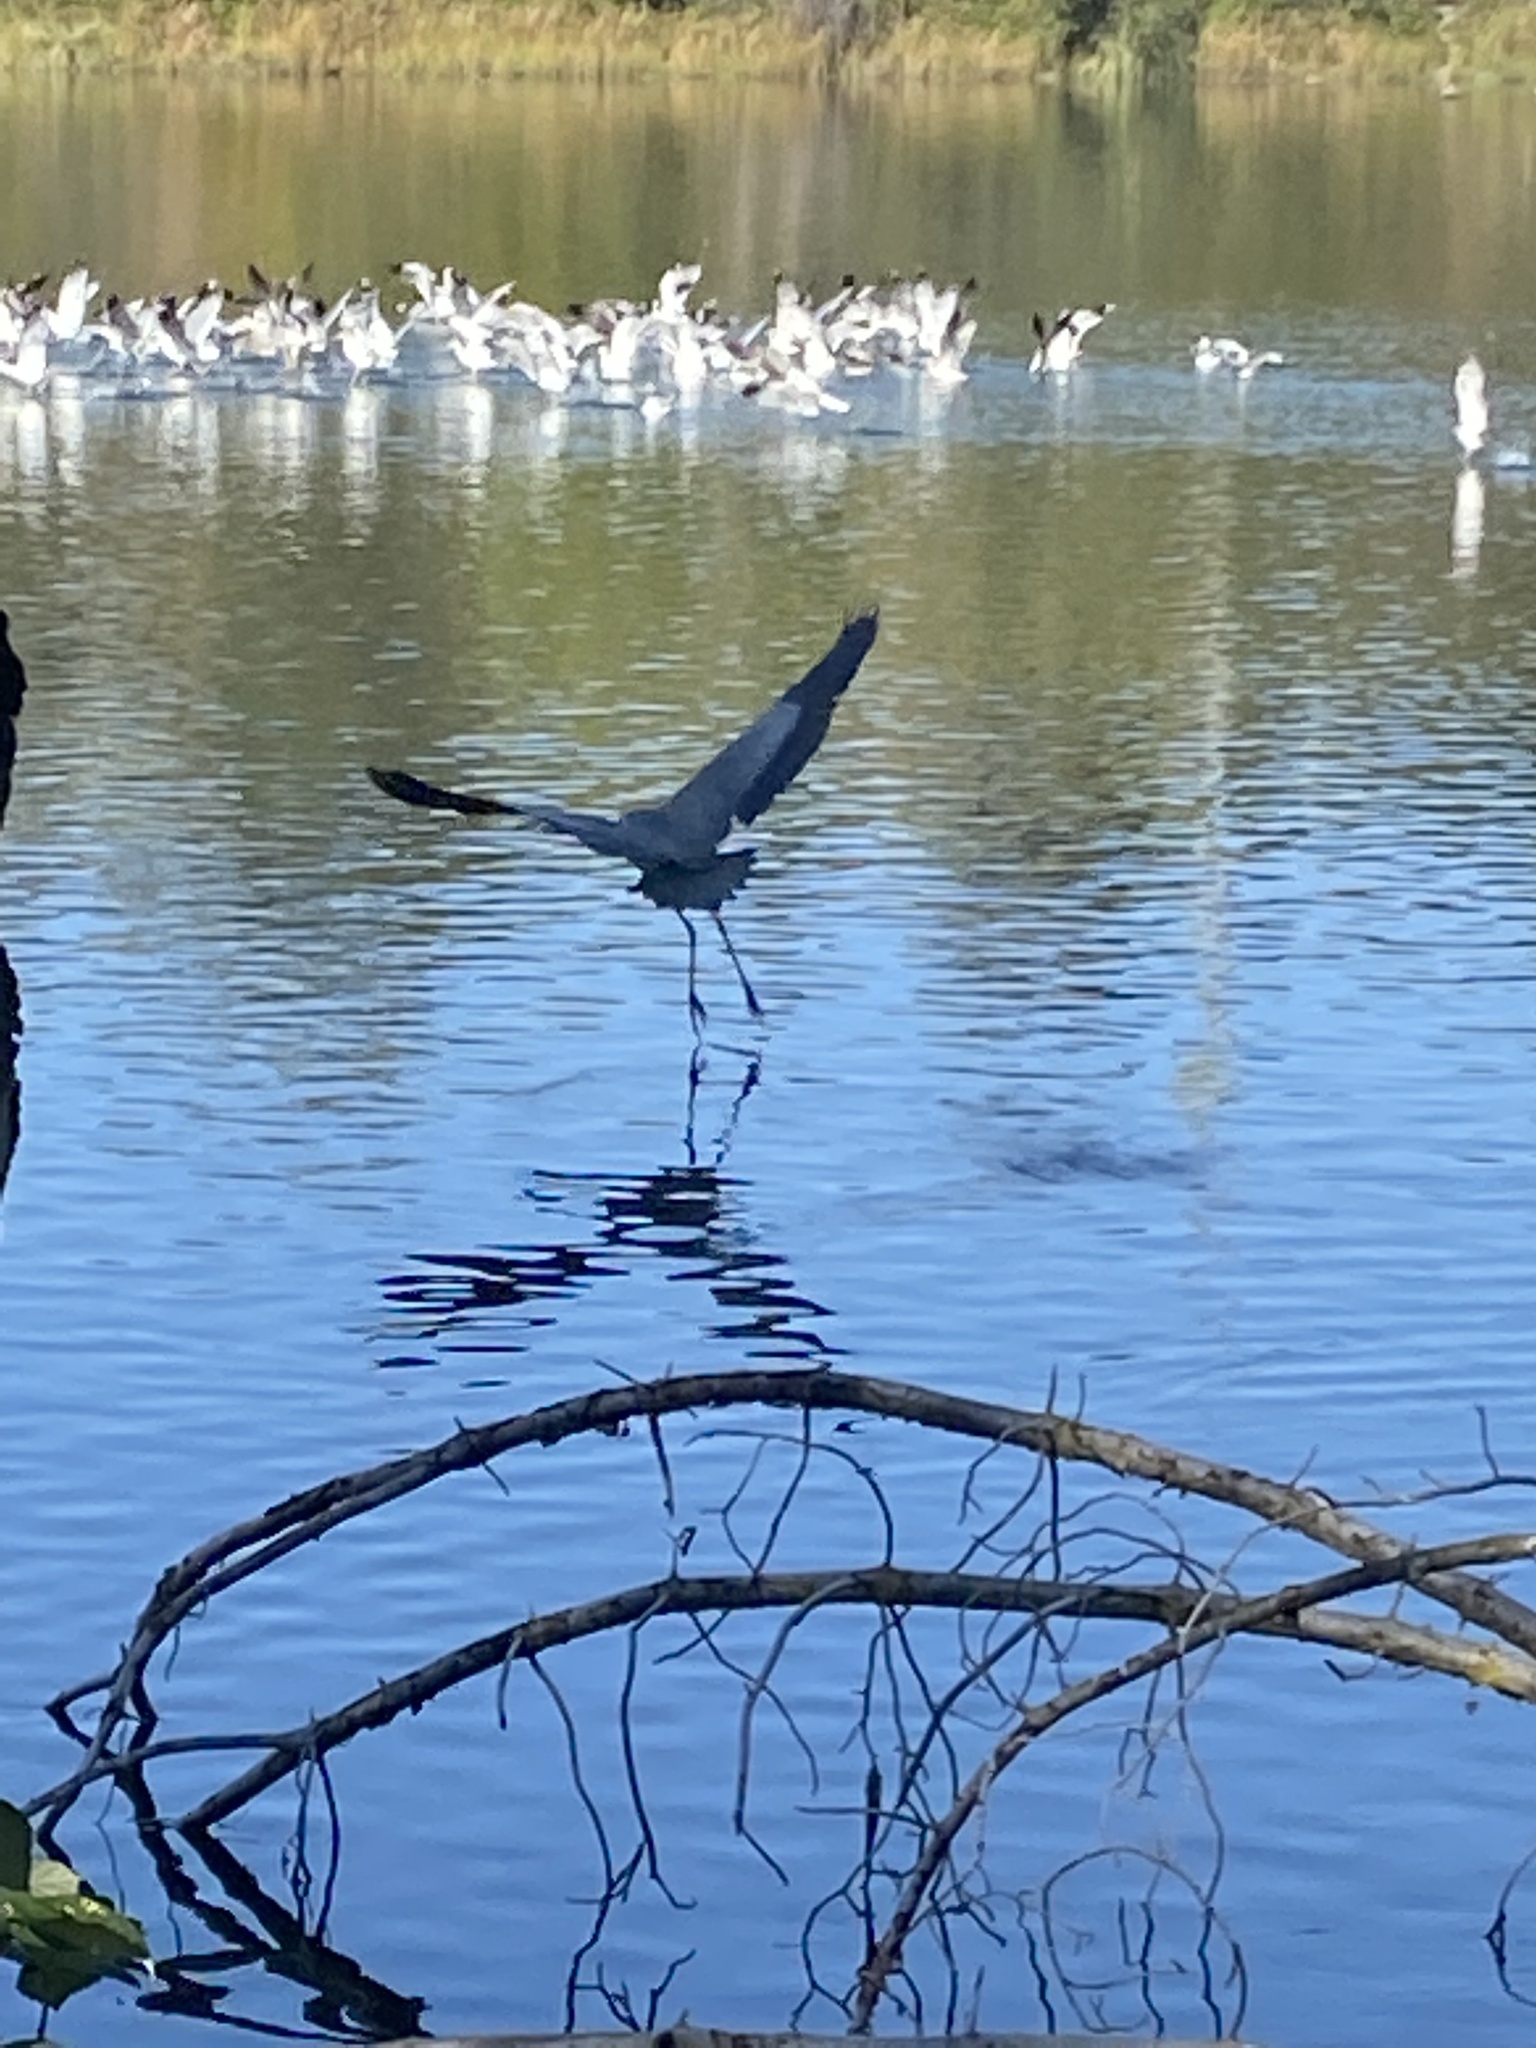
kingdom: Animalia
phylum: Chordata
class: Aves
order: Pelecaniformes
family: Ardeidae
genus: Ardea
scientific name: Ardea herodias
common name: Great blue heron
